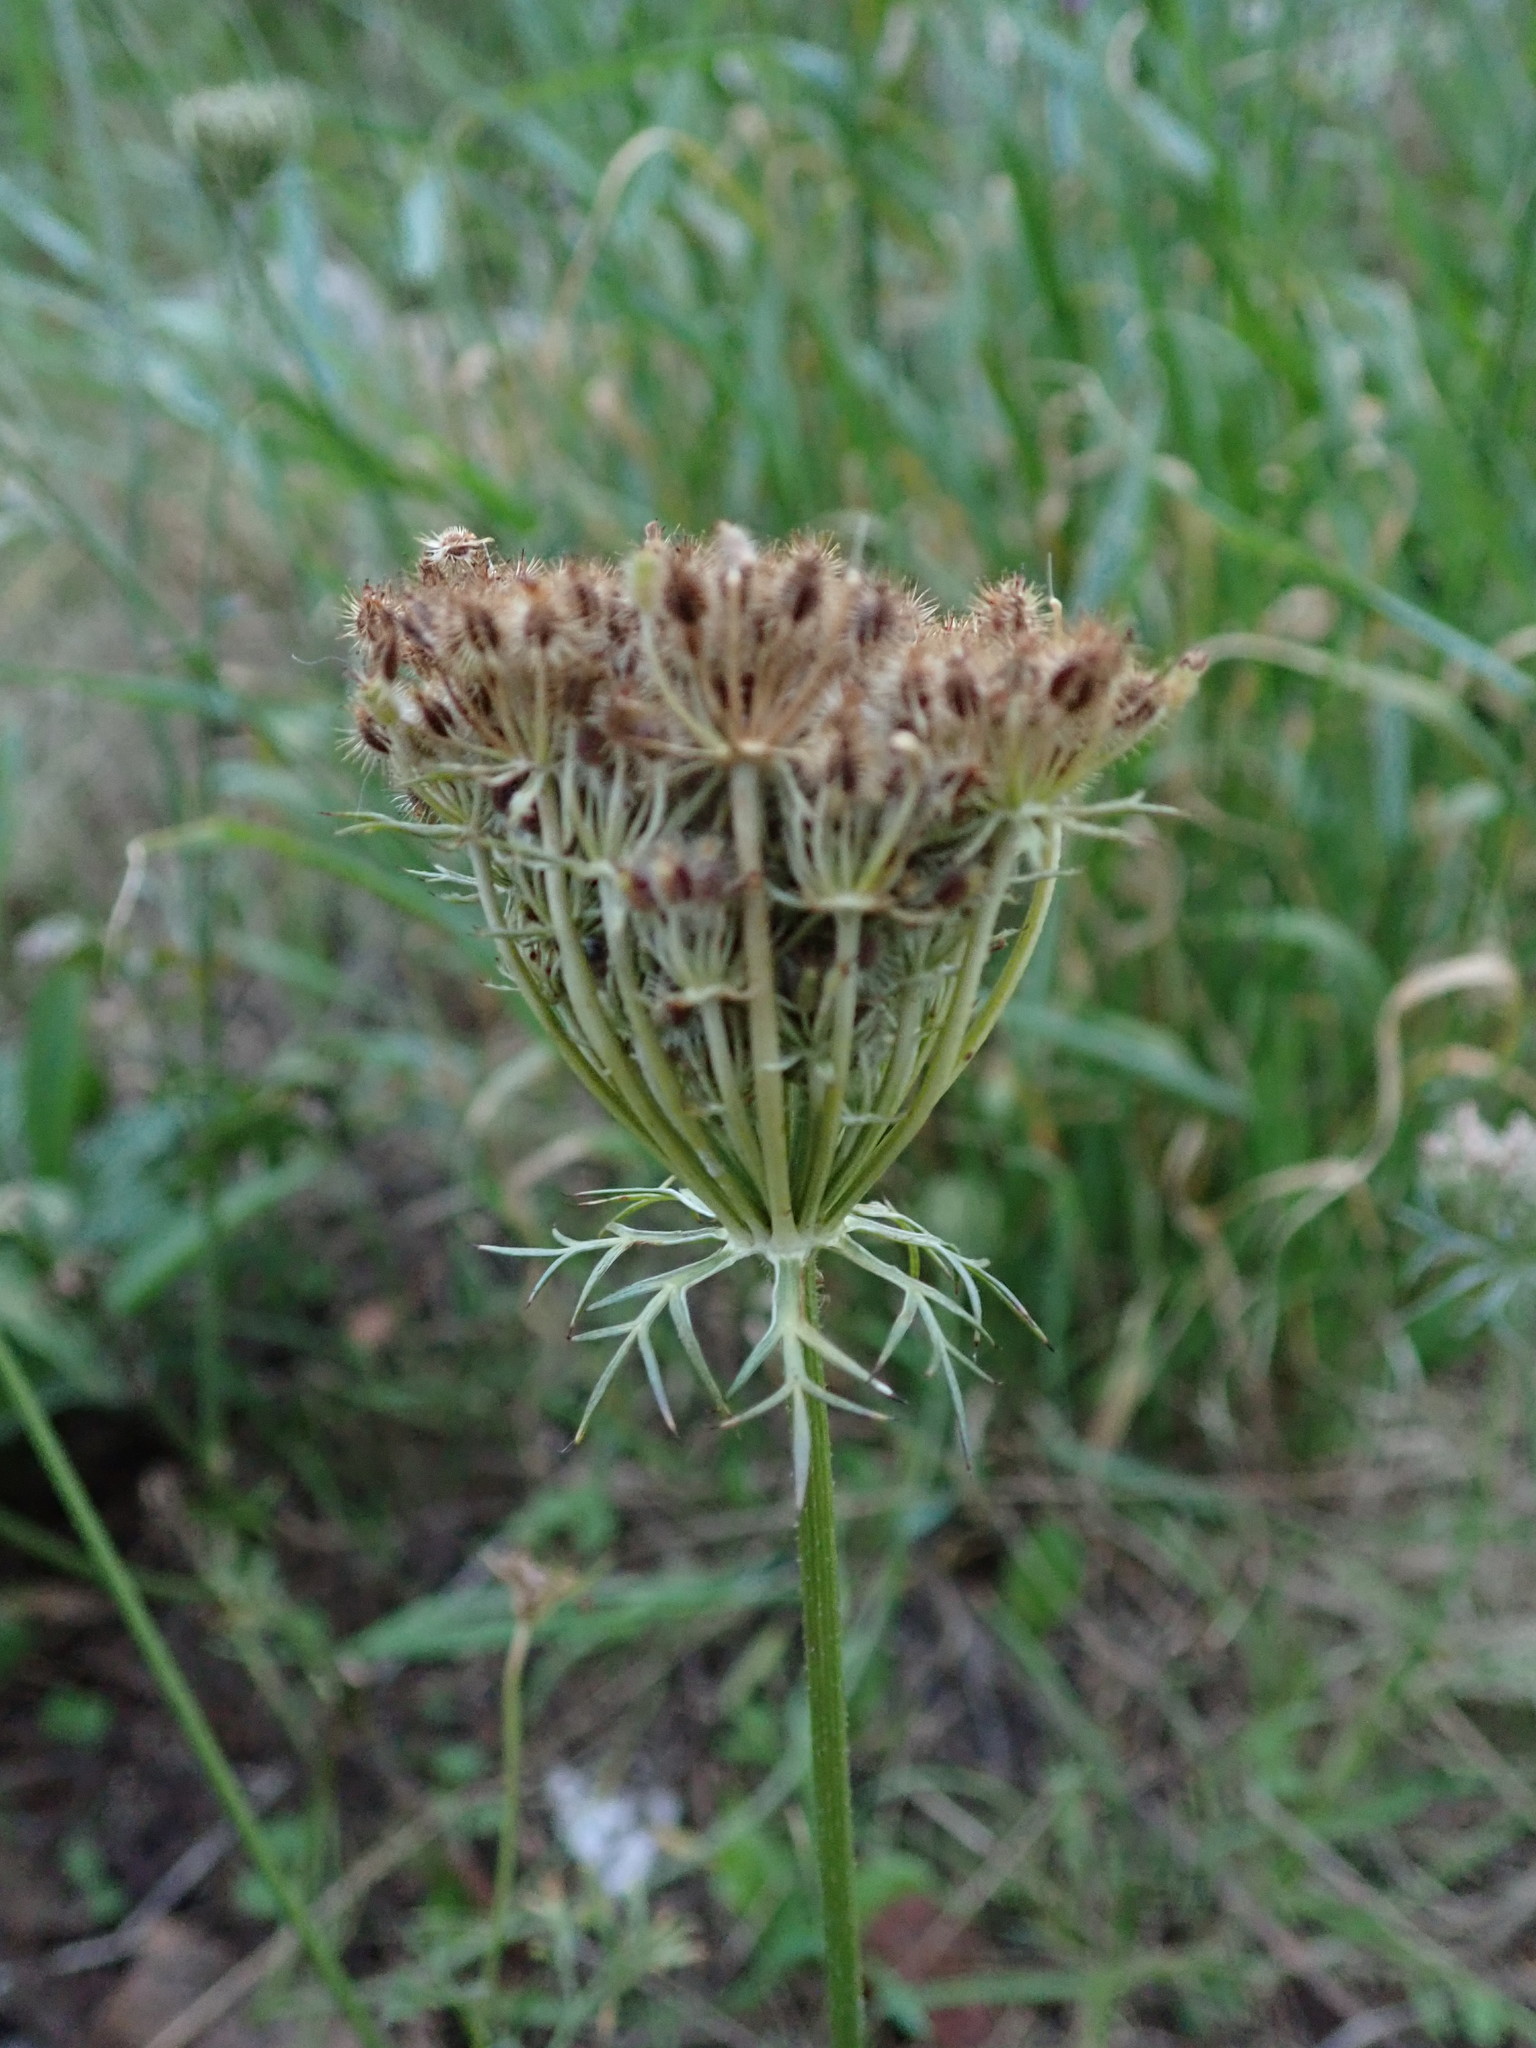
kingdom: Plantae
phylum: Tracheophyta
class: Magnoliopsida
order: Apiales
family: Apiaceae
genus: Daucus
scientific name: Daucus carota
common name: Wild carrot
